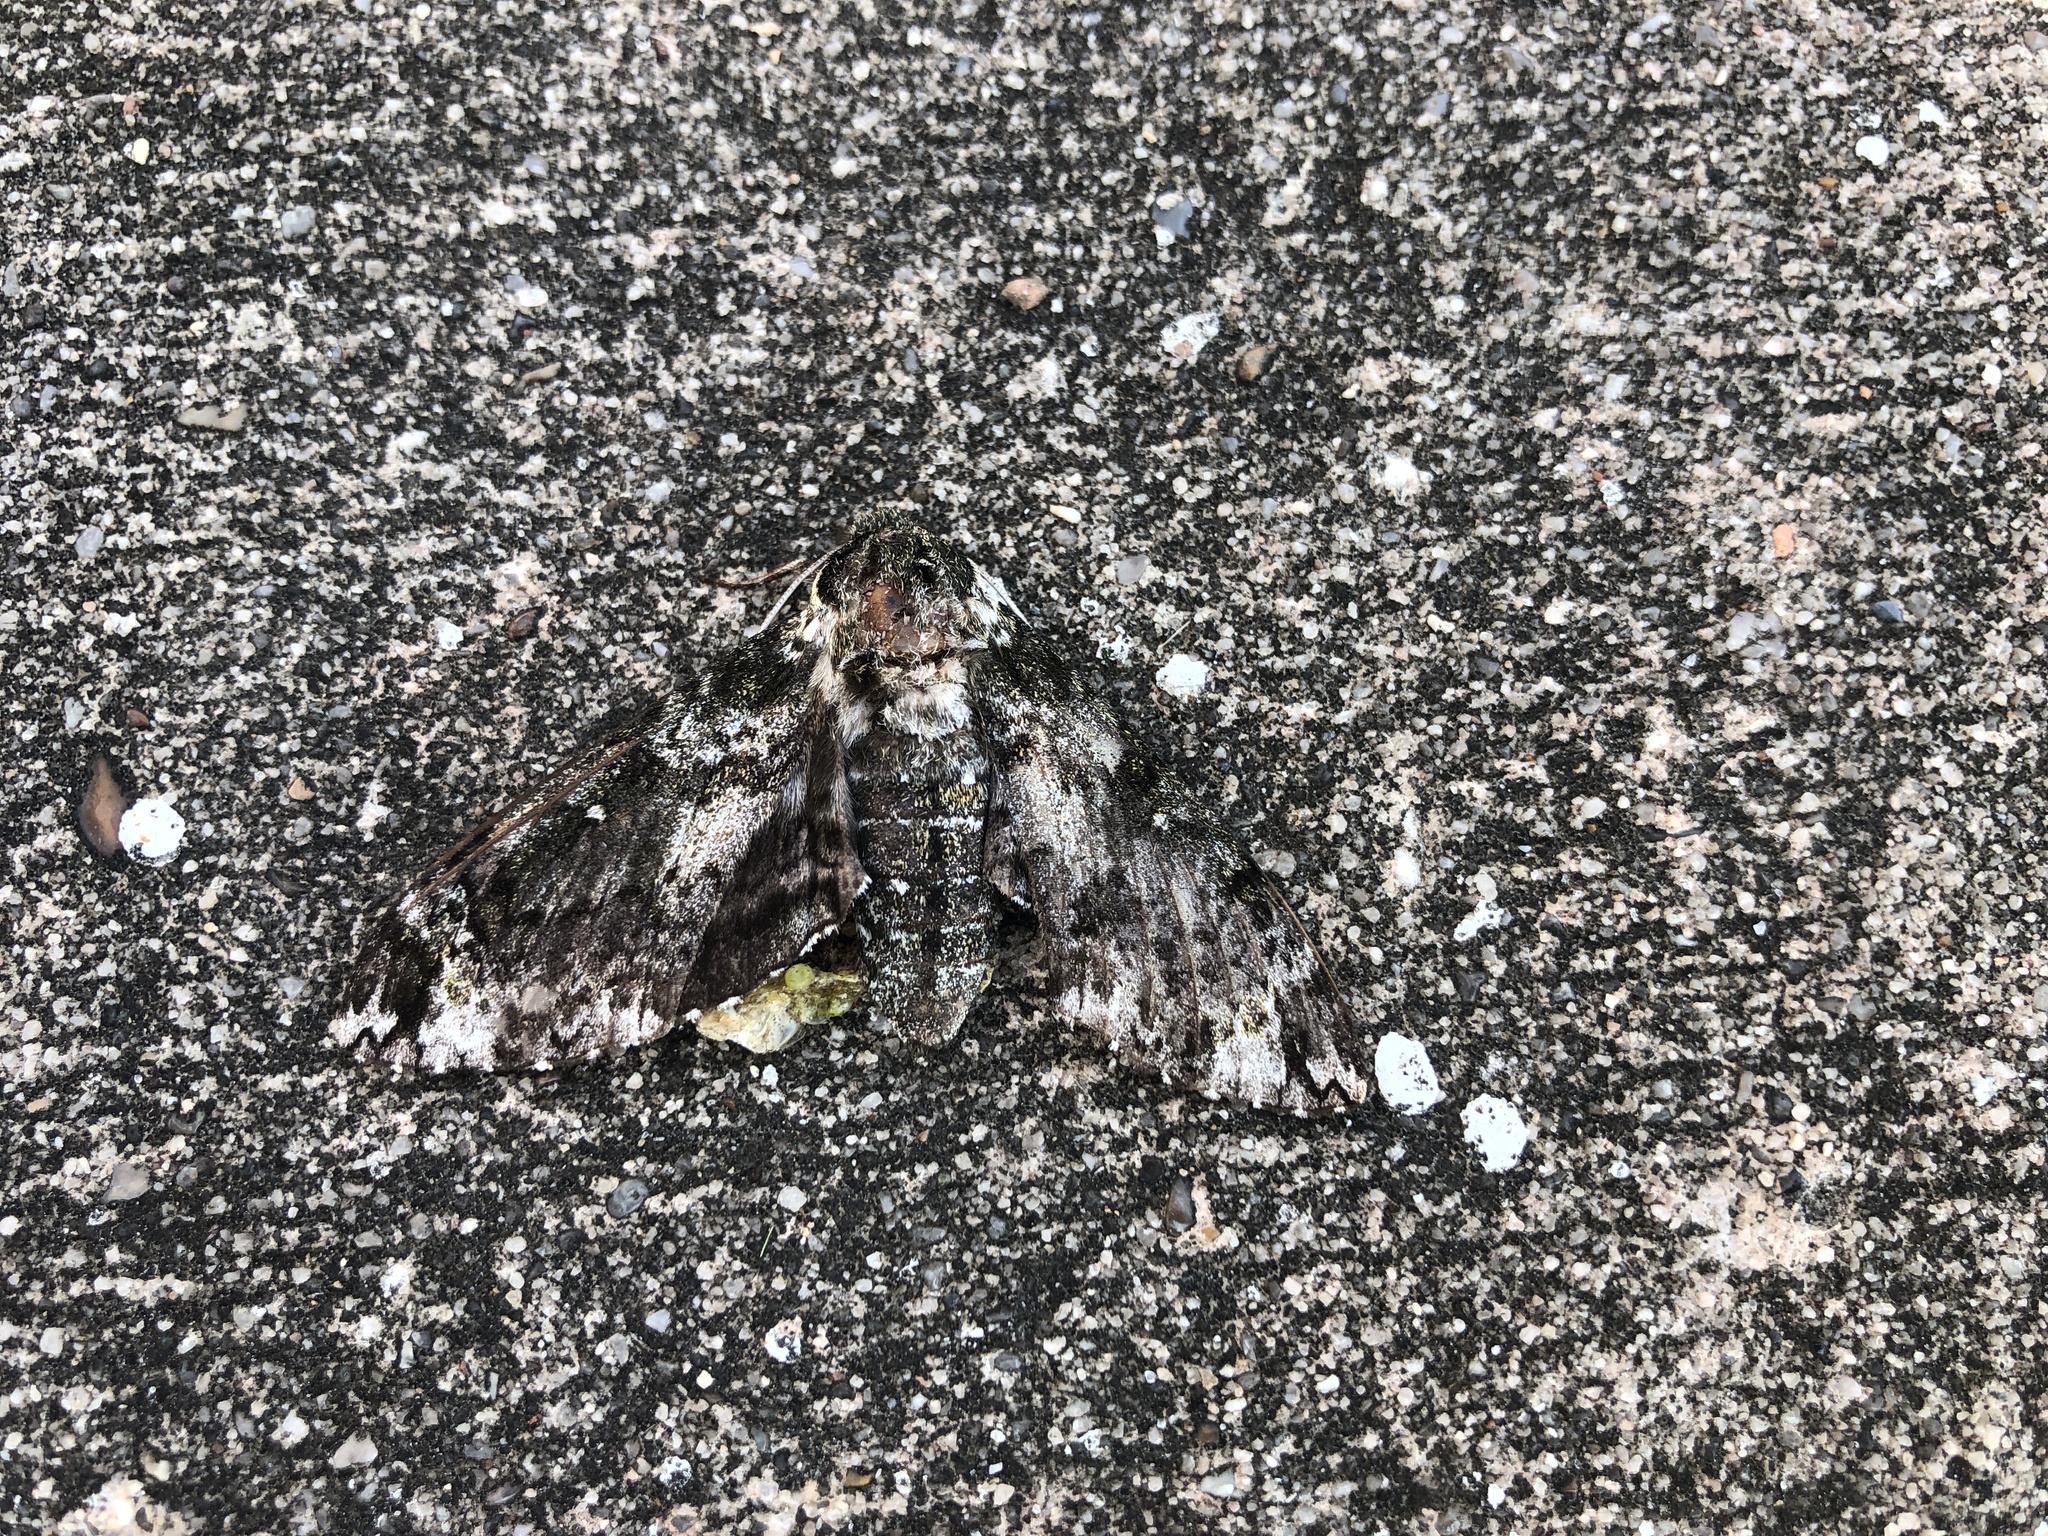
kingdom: Animalia
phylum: Arthropoda
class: Insecta
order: Lepidoptera
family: Sphingidae
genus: Dolba
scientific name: Dolba hyloeus
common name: Pawpaw sphinx
